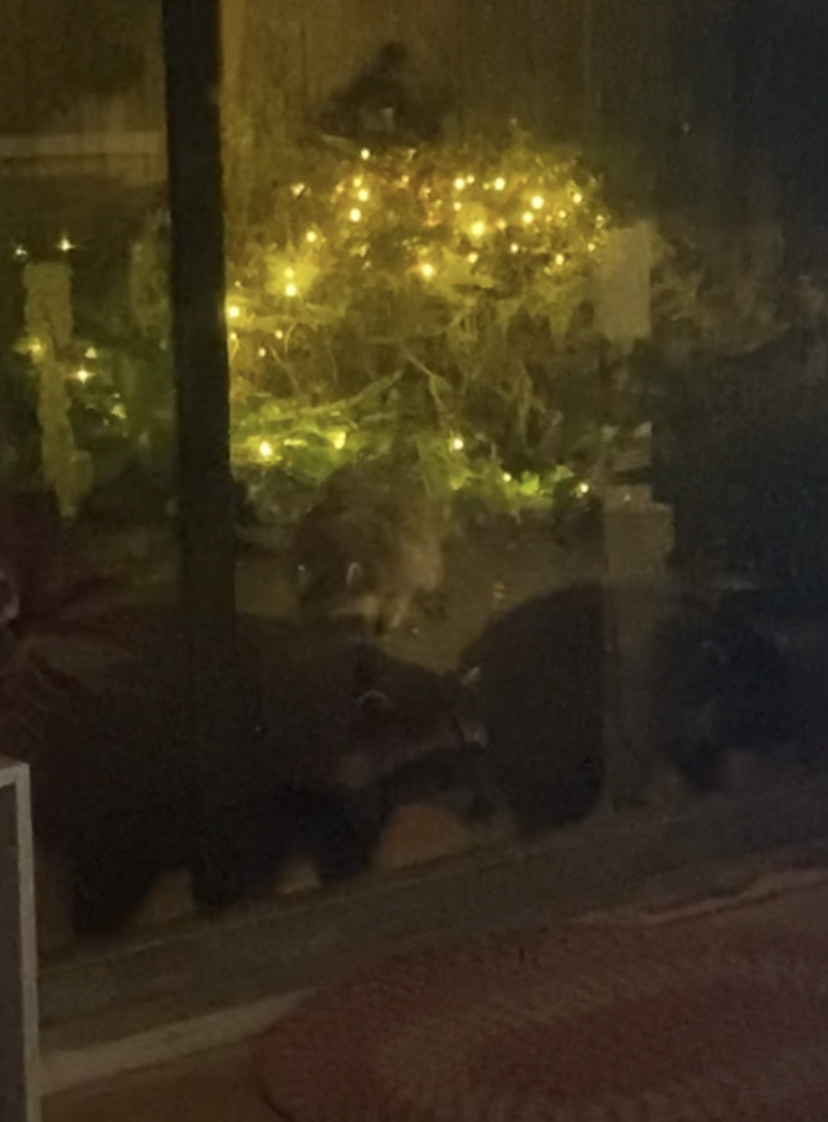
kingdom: Animalia
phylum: Chordata
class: Mammalia
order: Carnivora
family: Procyonidae
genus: Procyon
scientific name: Procyon lotor
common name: Raccoon
